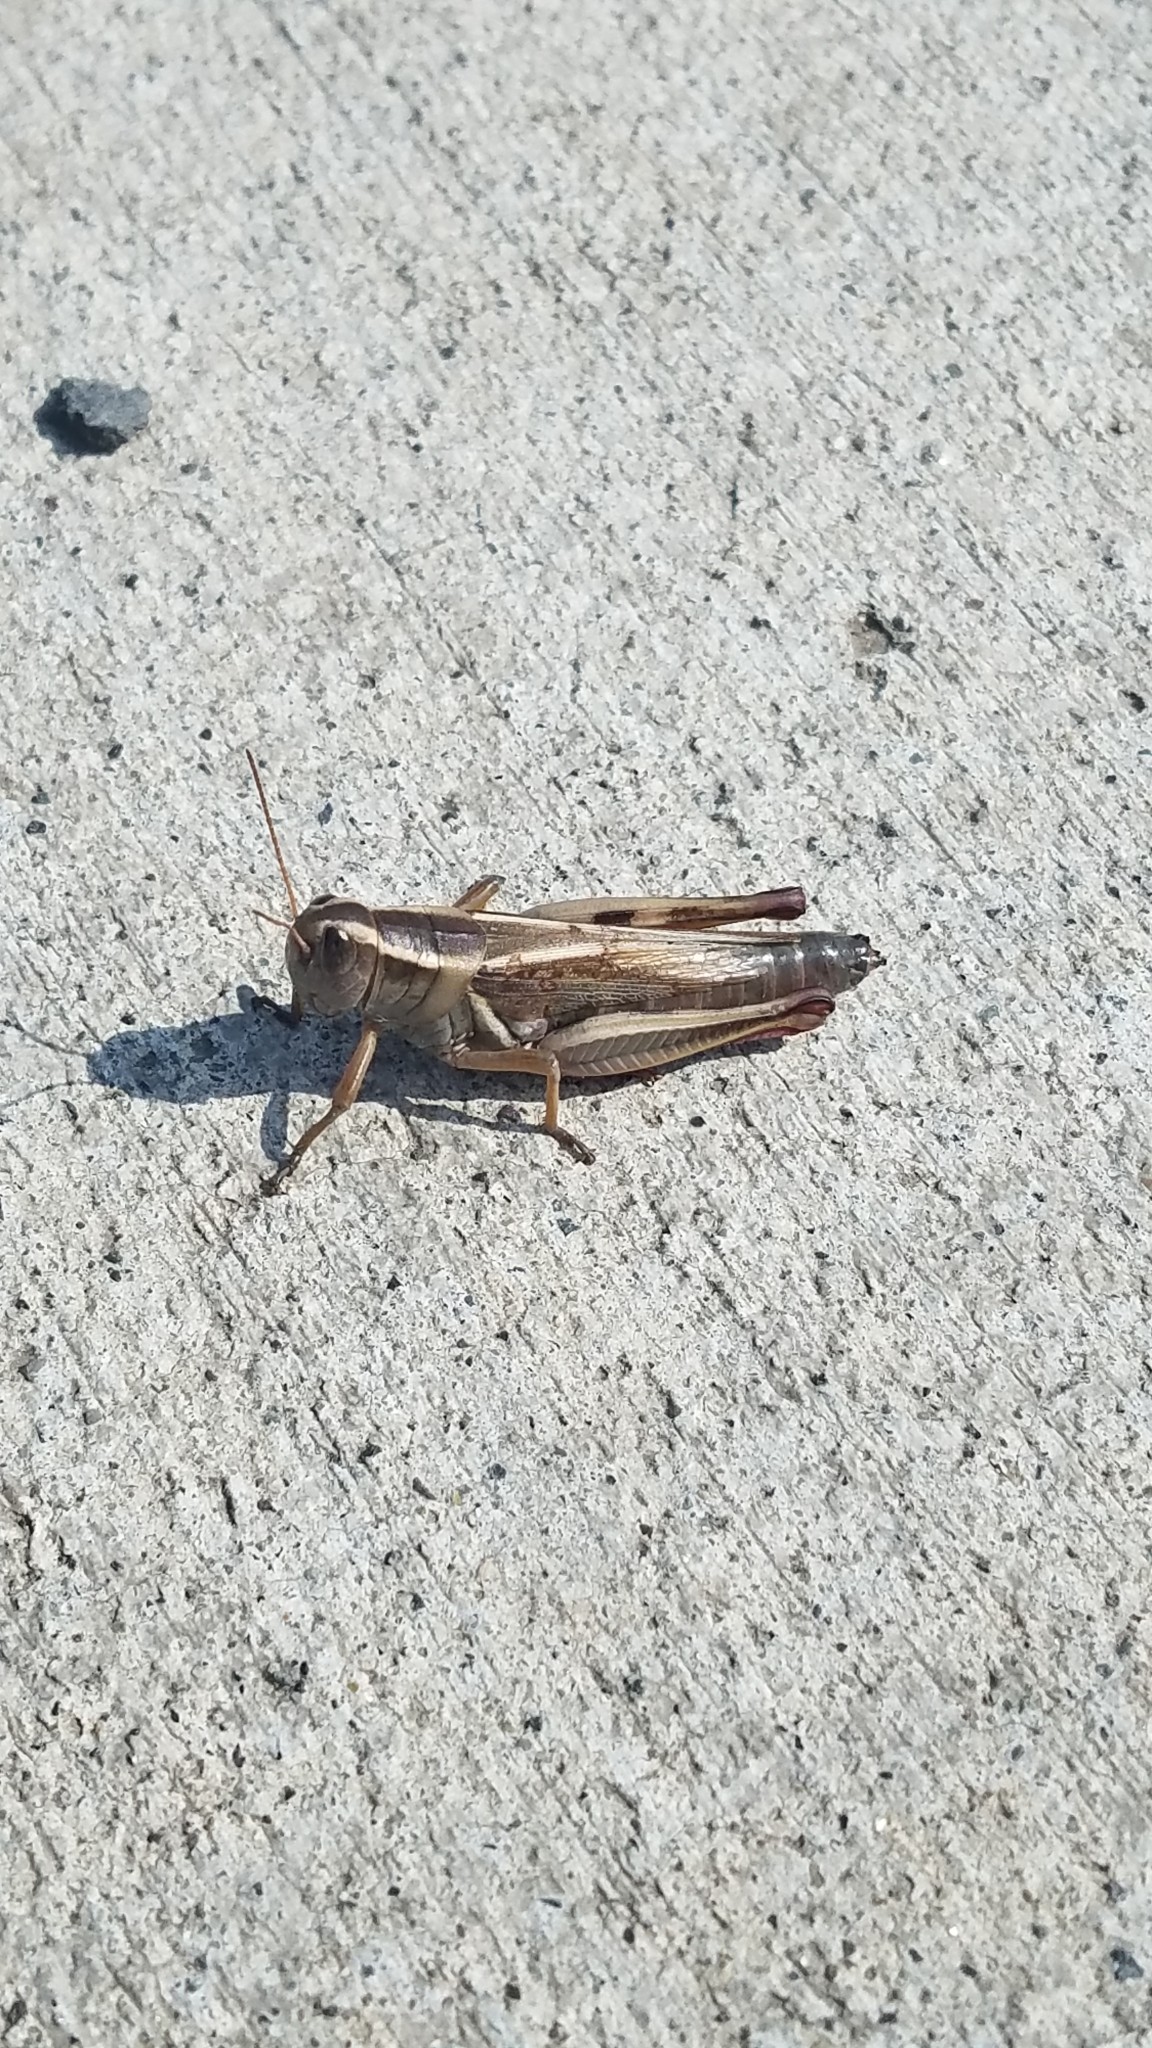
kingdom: Animalia
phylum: Arthropoda
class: Insecta
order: Orthoptera
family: Acrididae
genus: Melanoplus
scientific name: Melanoplus bivittatus
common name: Two-striped grasshopper
